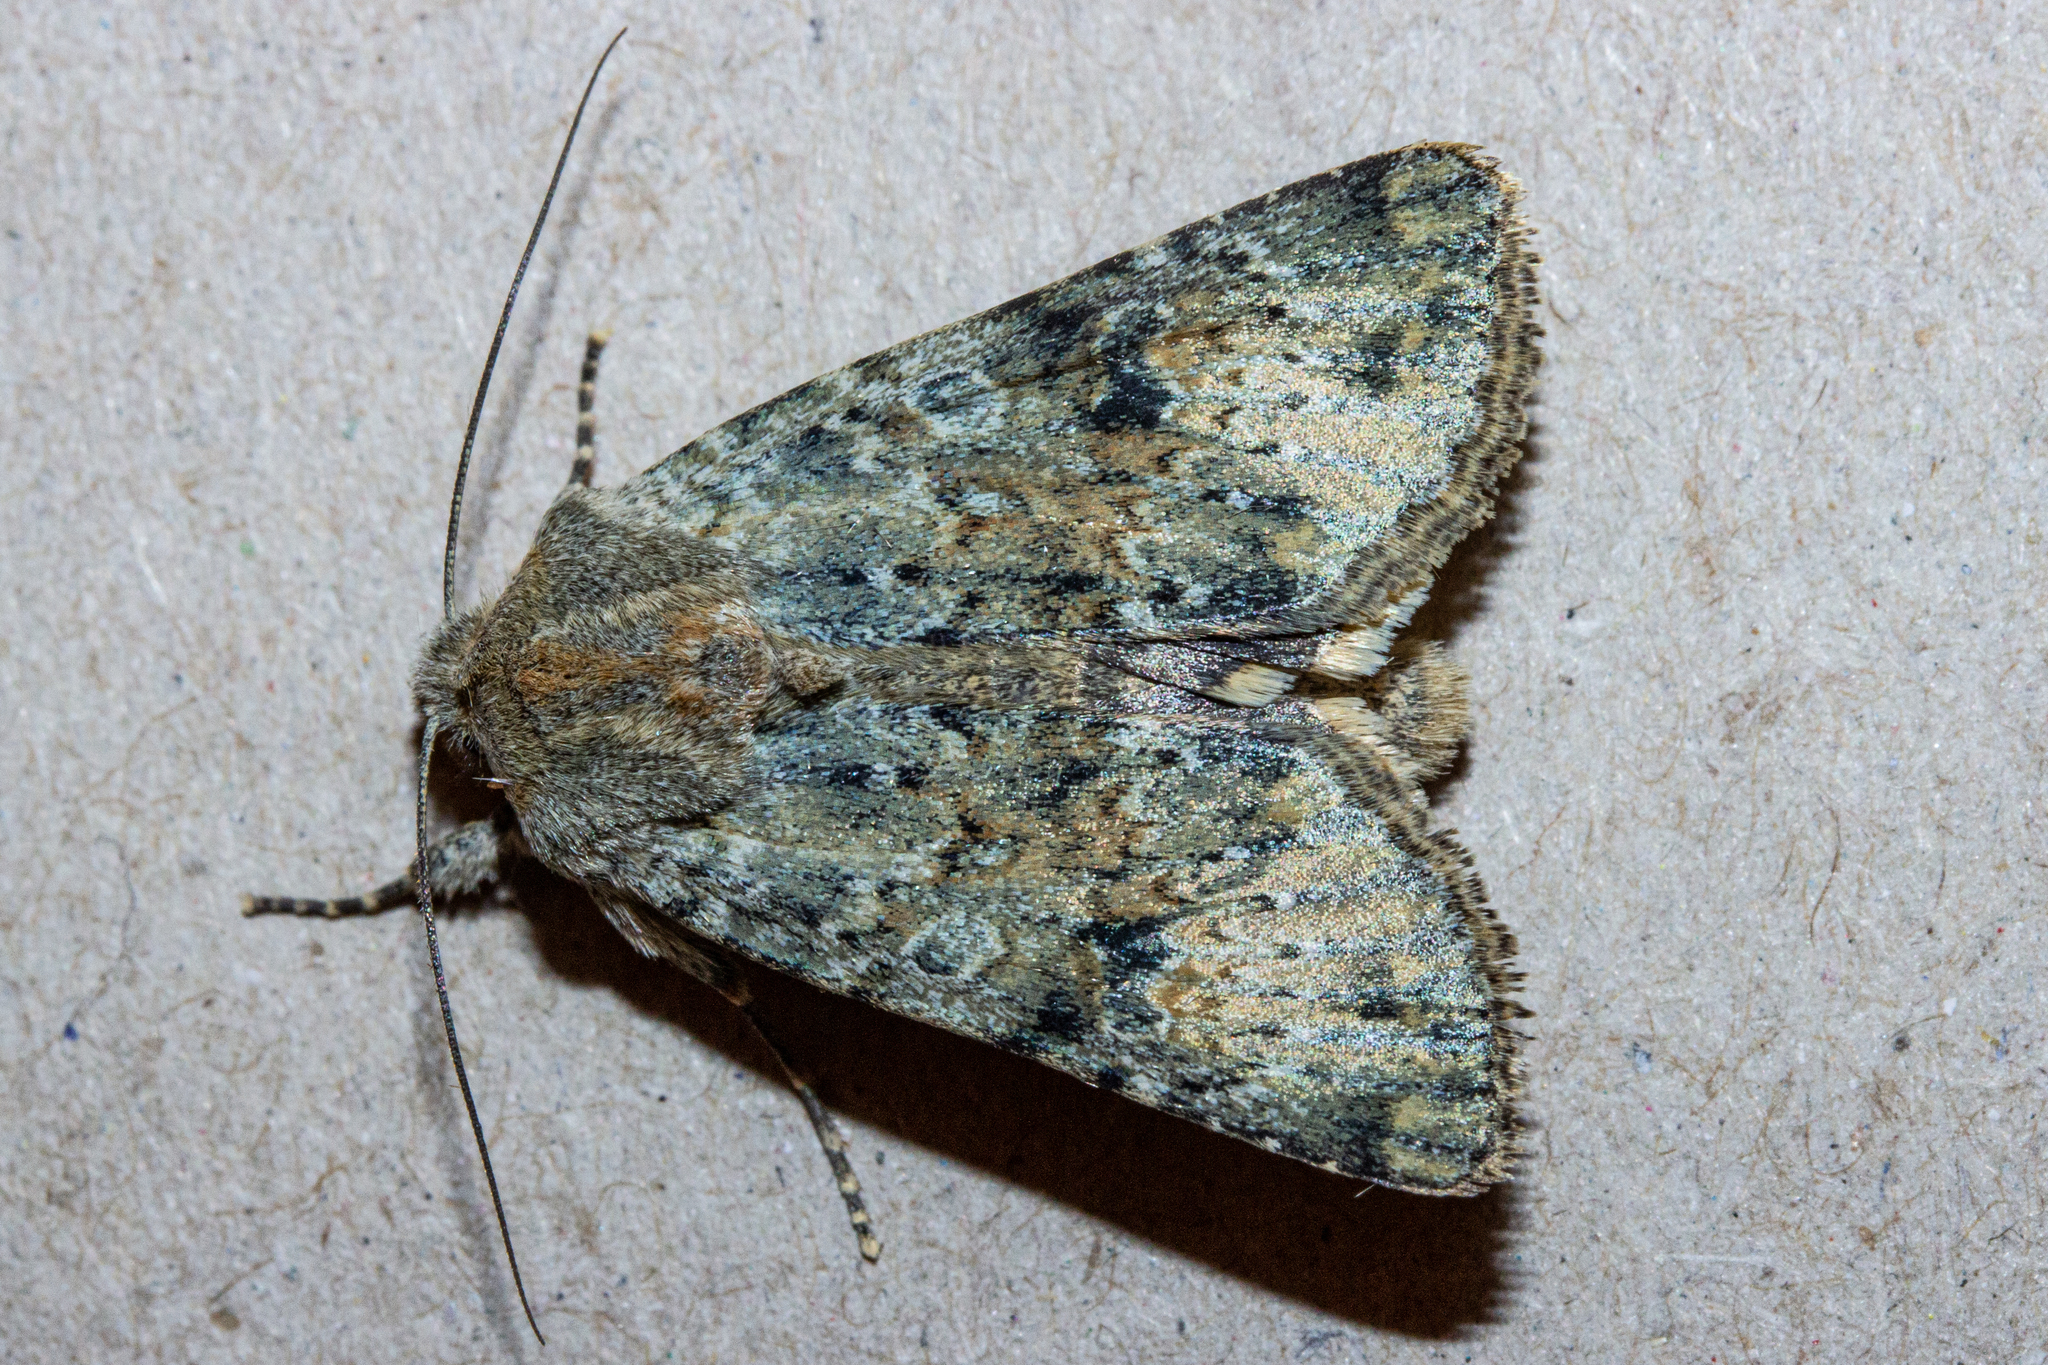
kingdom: Animalia
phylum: Arthropoda
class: Insecta
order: Lepidoptera
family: Noctuidae
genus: Ichneutica
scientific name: Ichneutica cuneata
